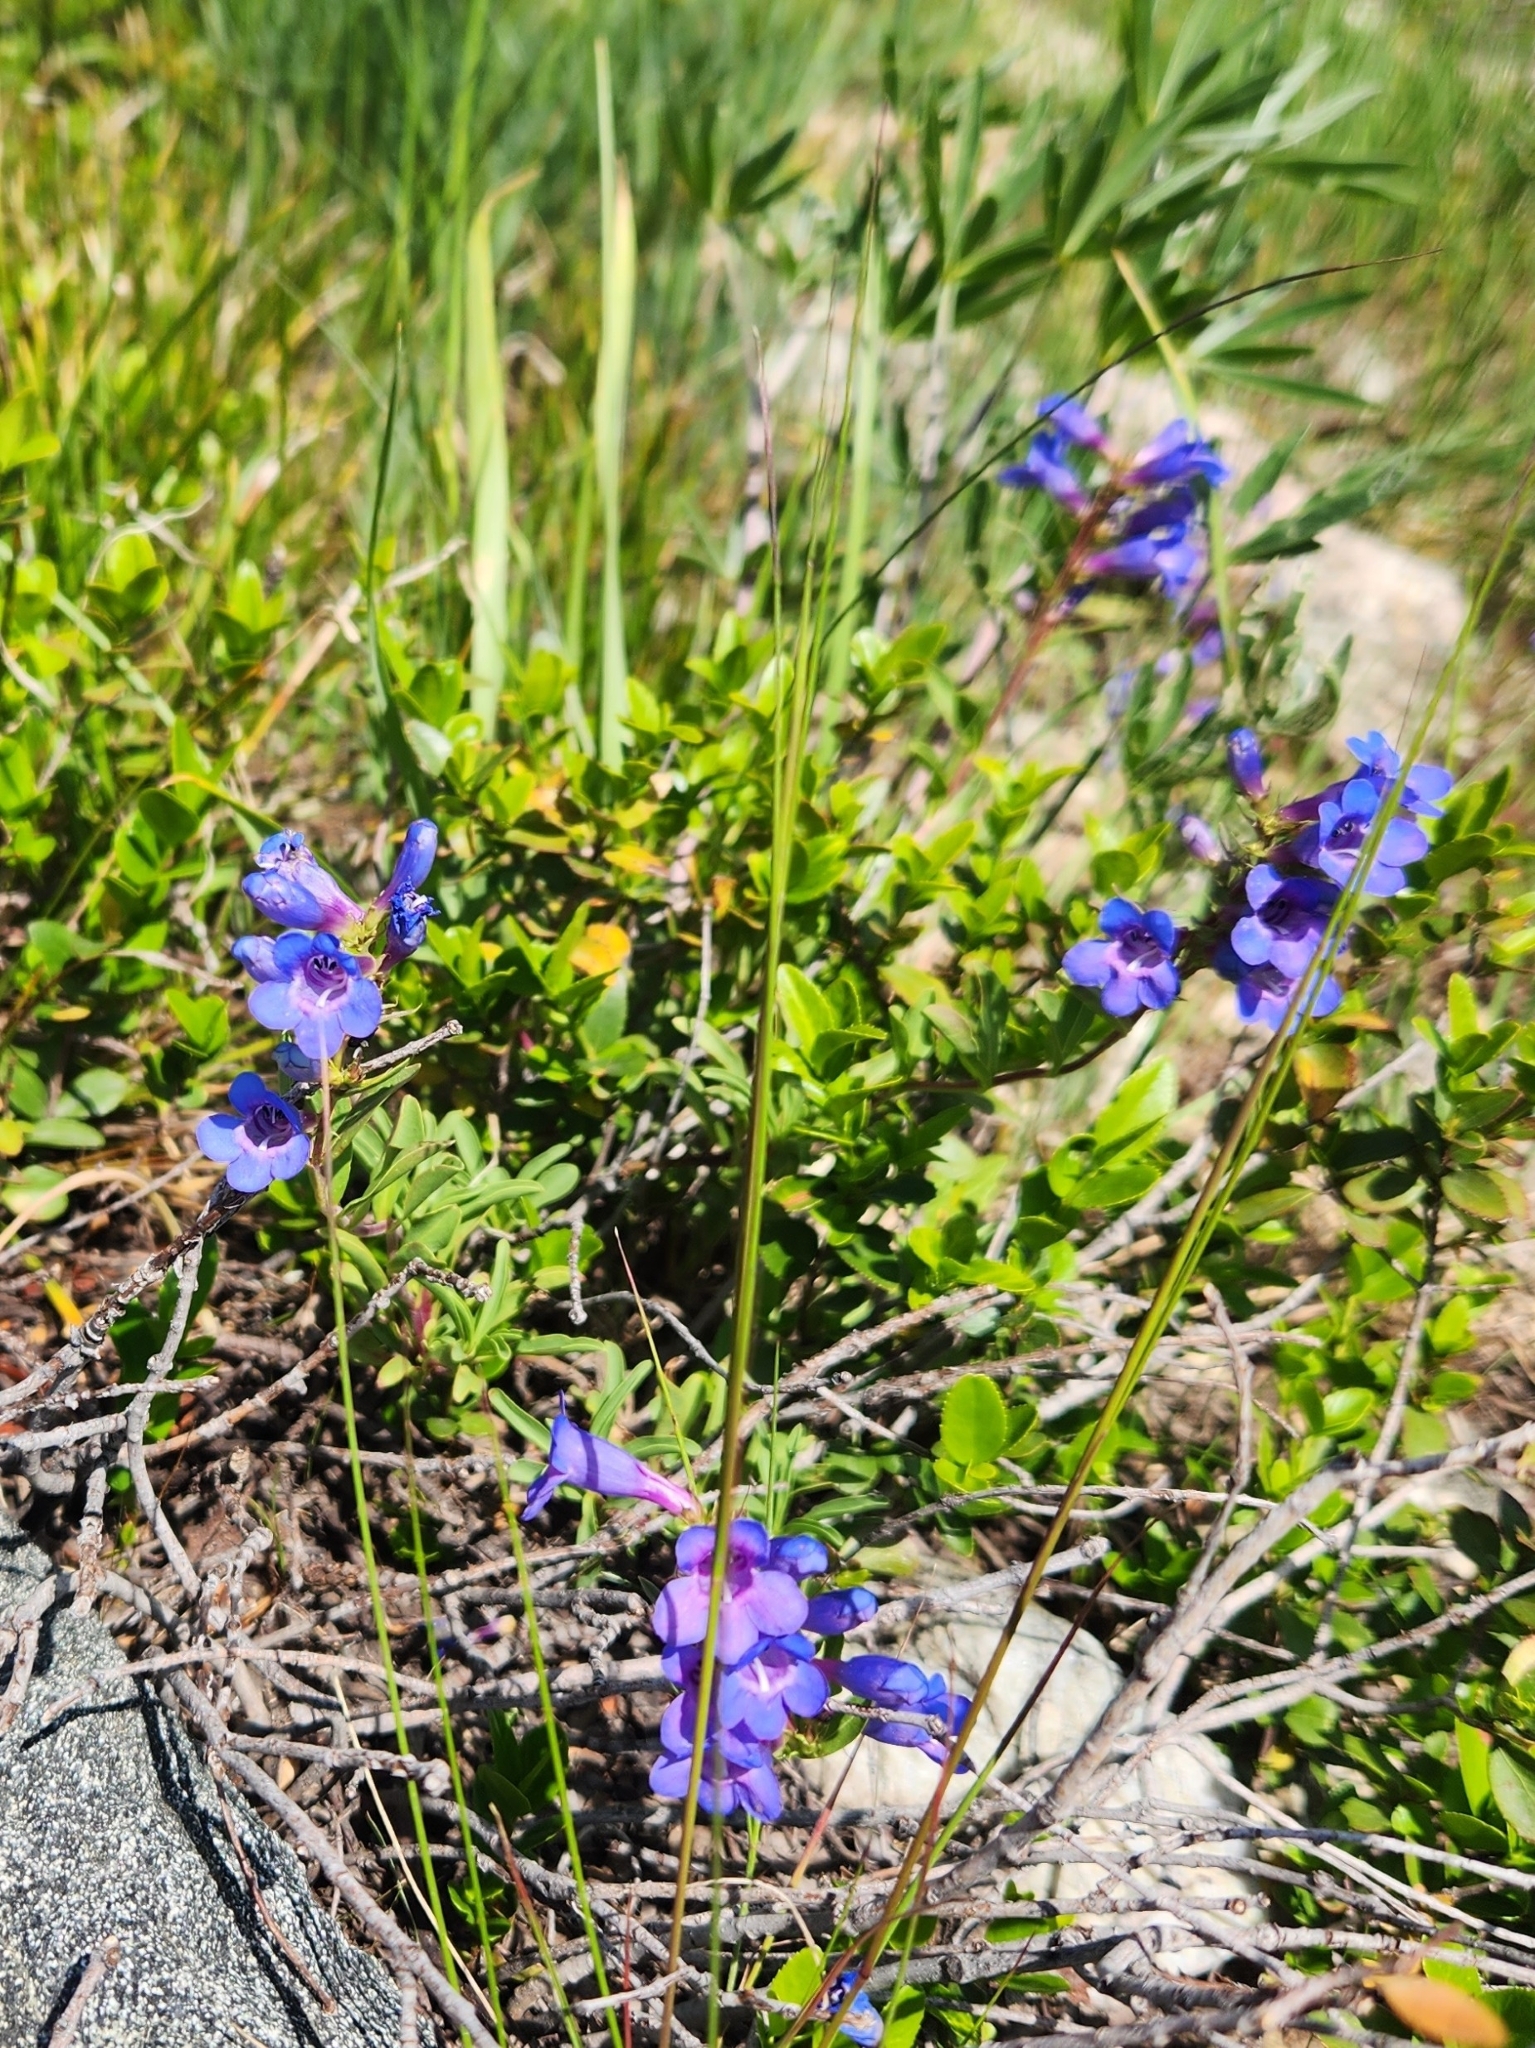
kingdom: Plantae
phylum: Tracheophyta
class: Magnoliopsida
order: Lamiales
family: Plantaginaceae
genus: Penstemon
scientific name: Penstemon leonardii
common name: Leonard's penstemon
